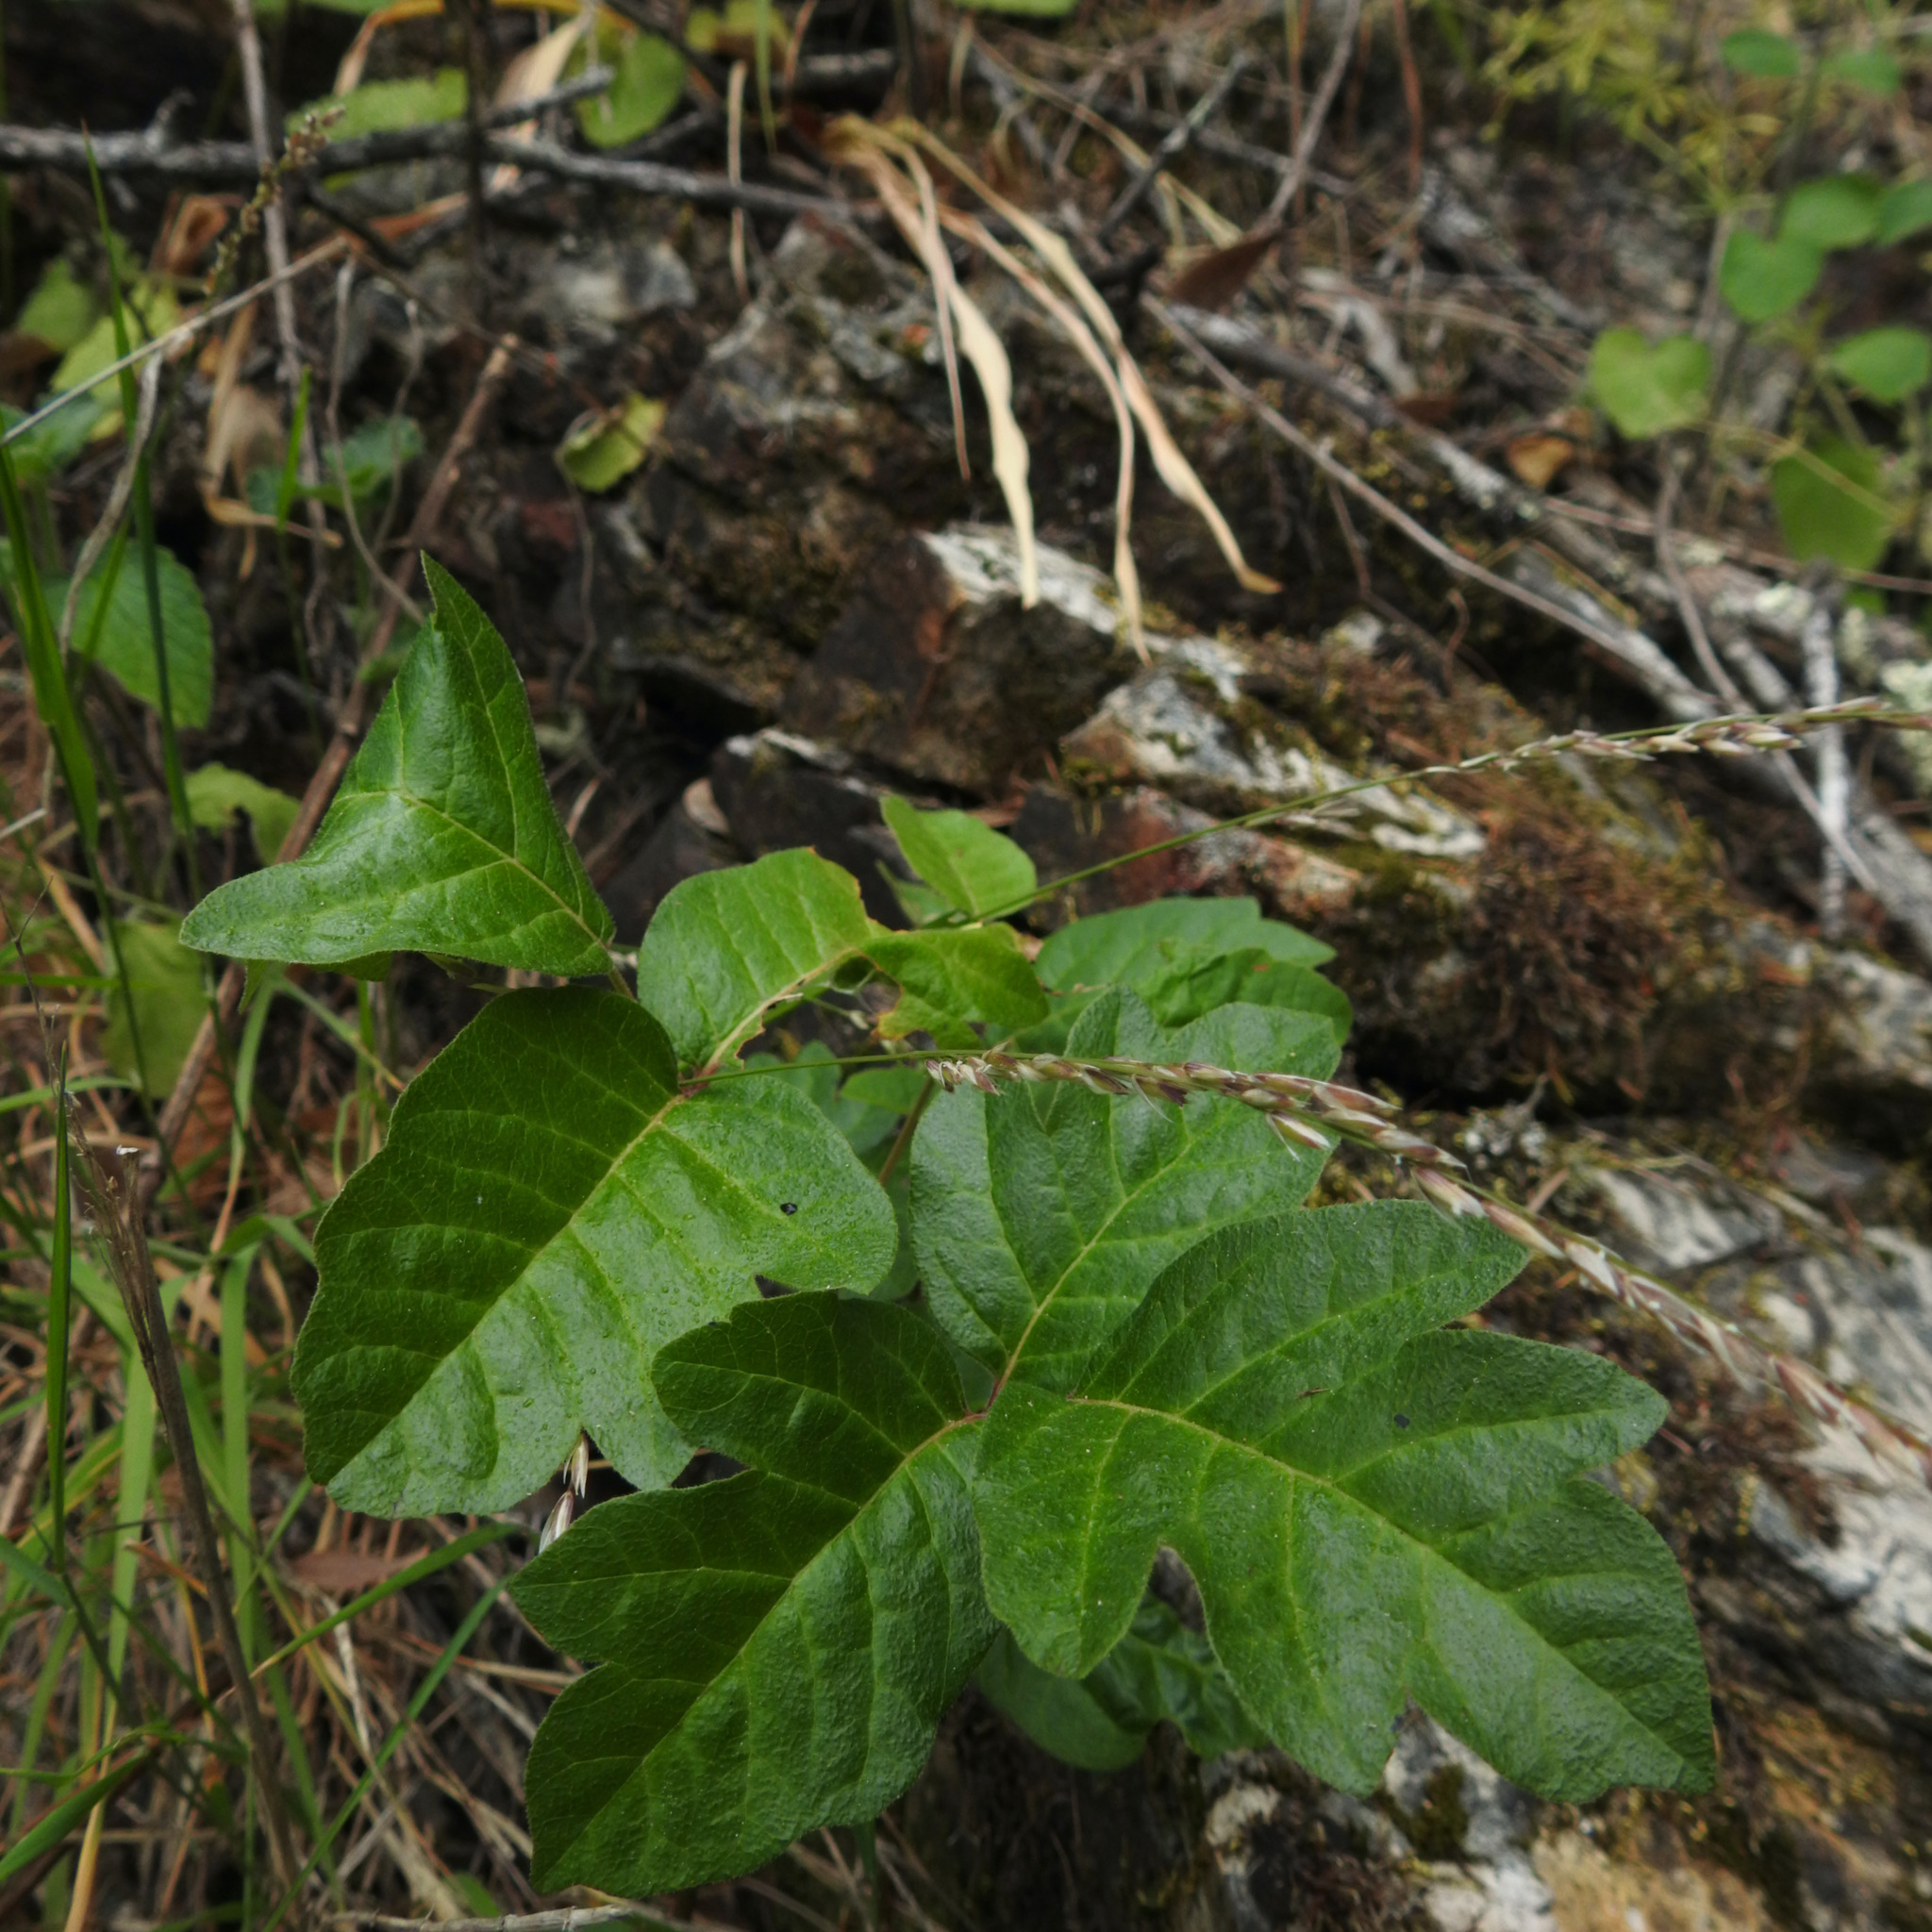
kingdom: Plantae
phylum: Tracheophyta
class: Magnoliopsida
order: Sapindales
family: Anacardiaceae
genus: Toxicodendron
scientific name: Toxicodendron diversilobum
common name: Pacific poison-oak
